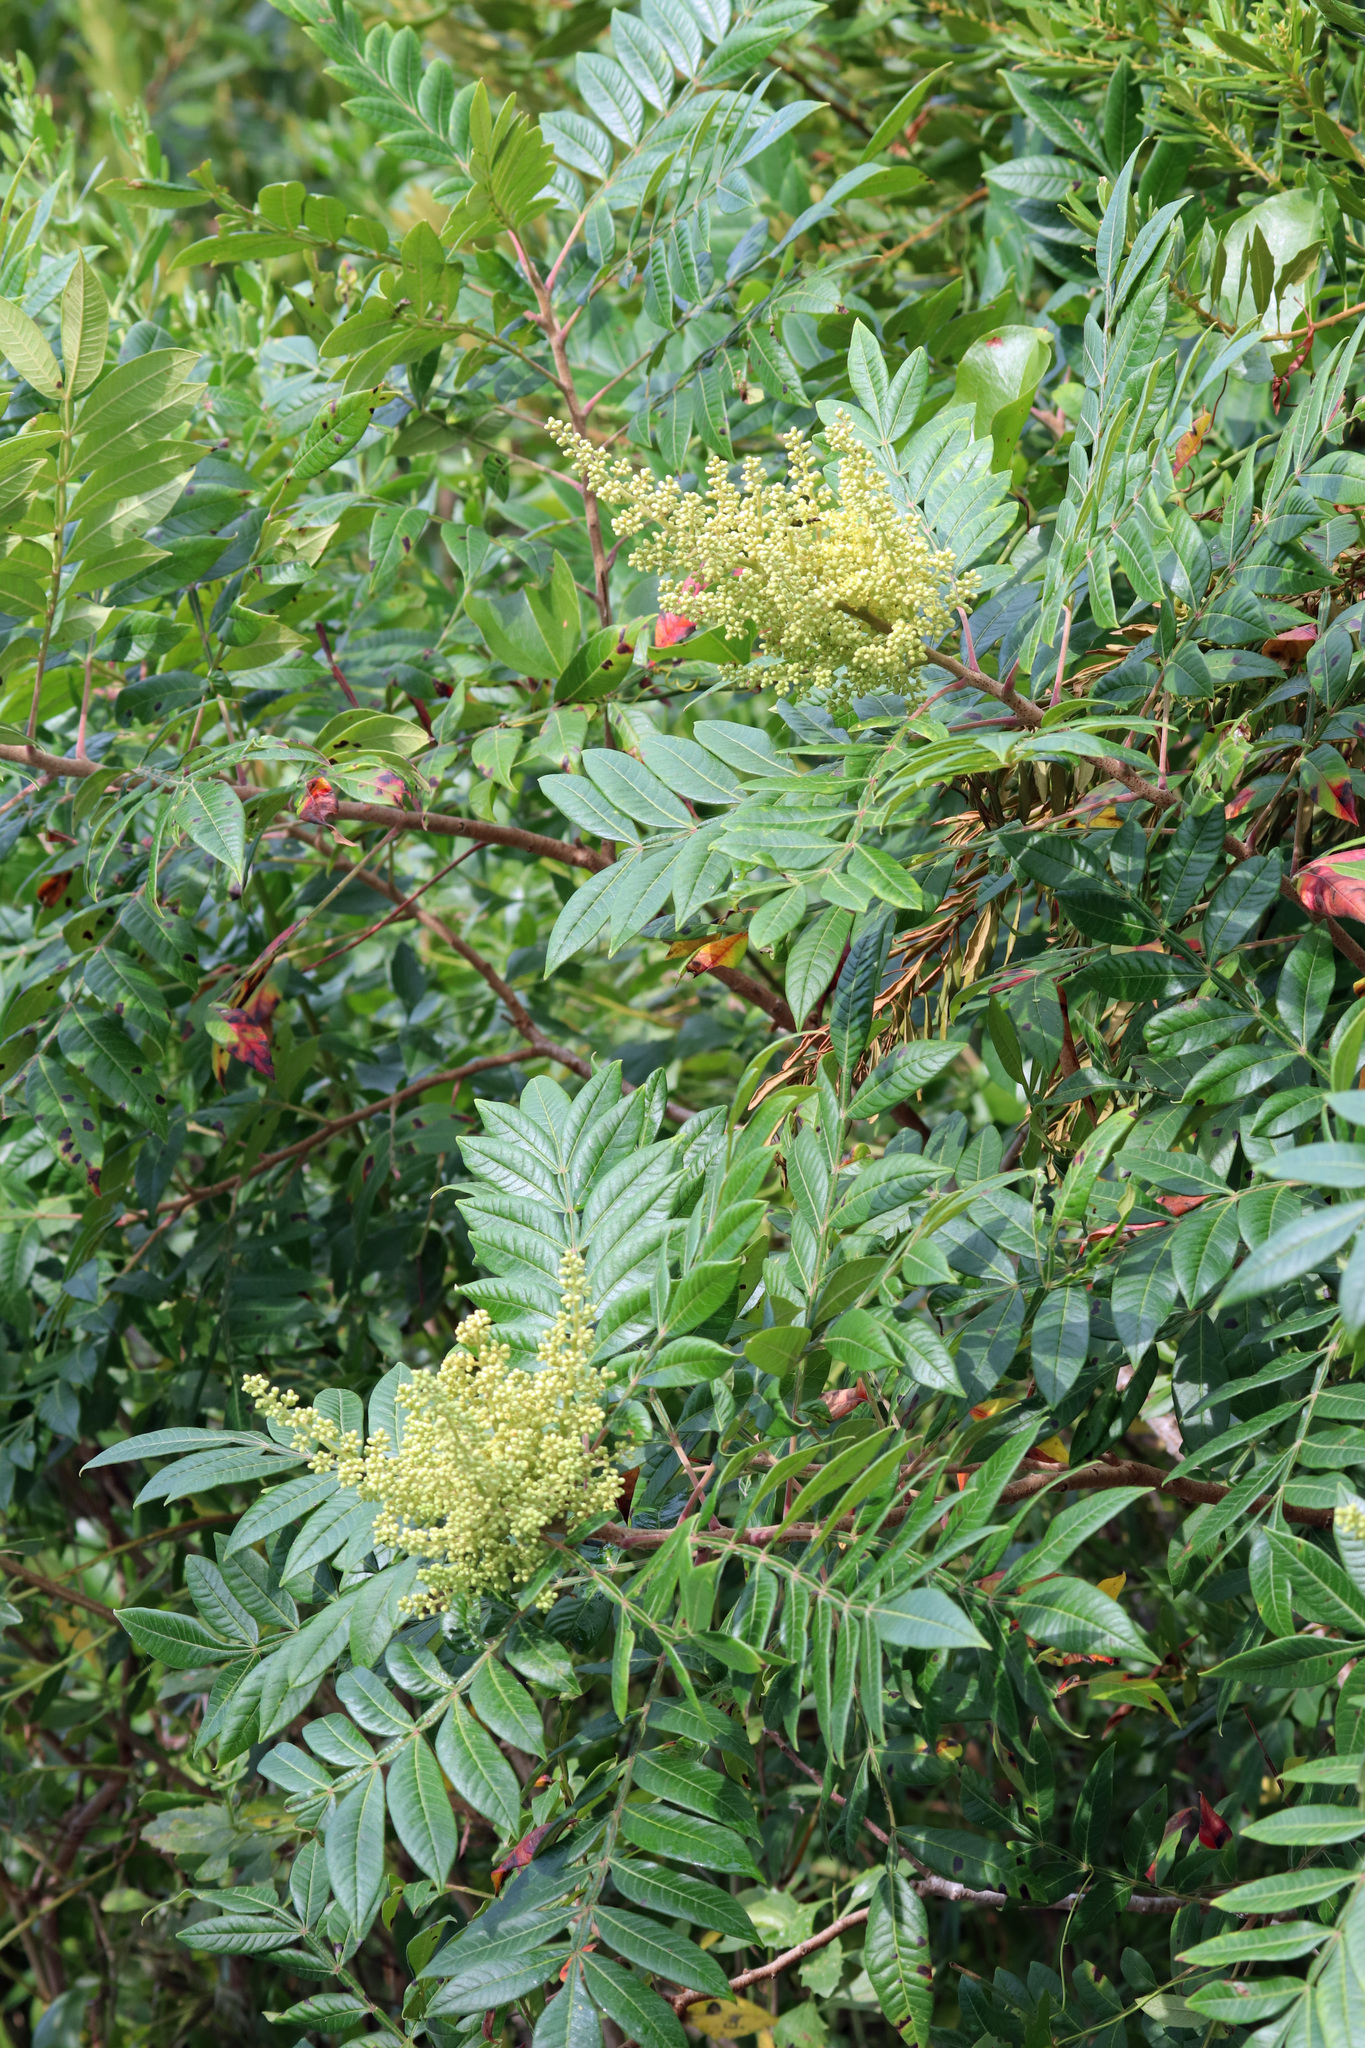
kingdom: Plantae
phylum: Tracheophyta
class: Magnoliopsida
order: Sapindales
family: Anacardiaceae
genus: Rhus
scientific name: Rhus copallina
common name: Shining sumac
